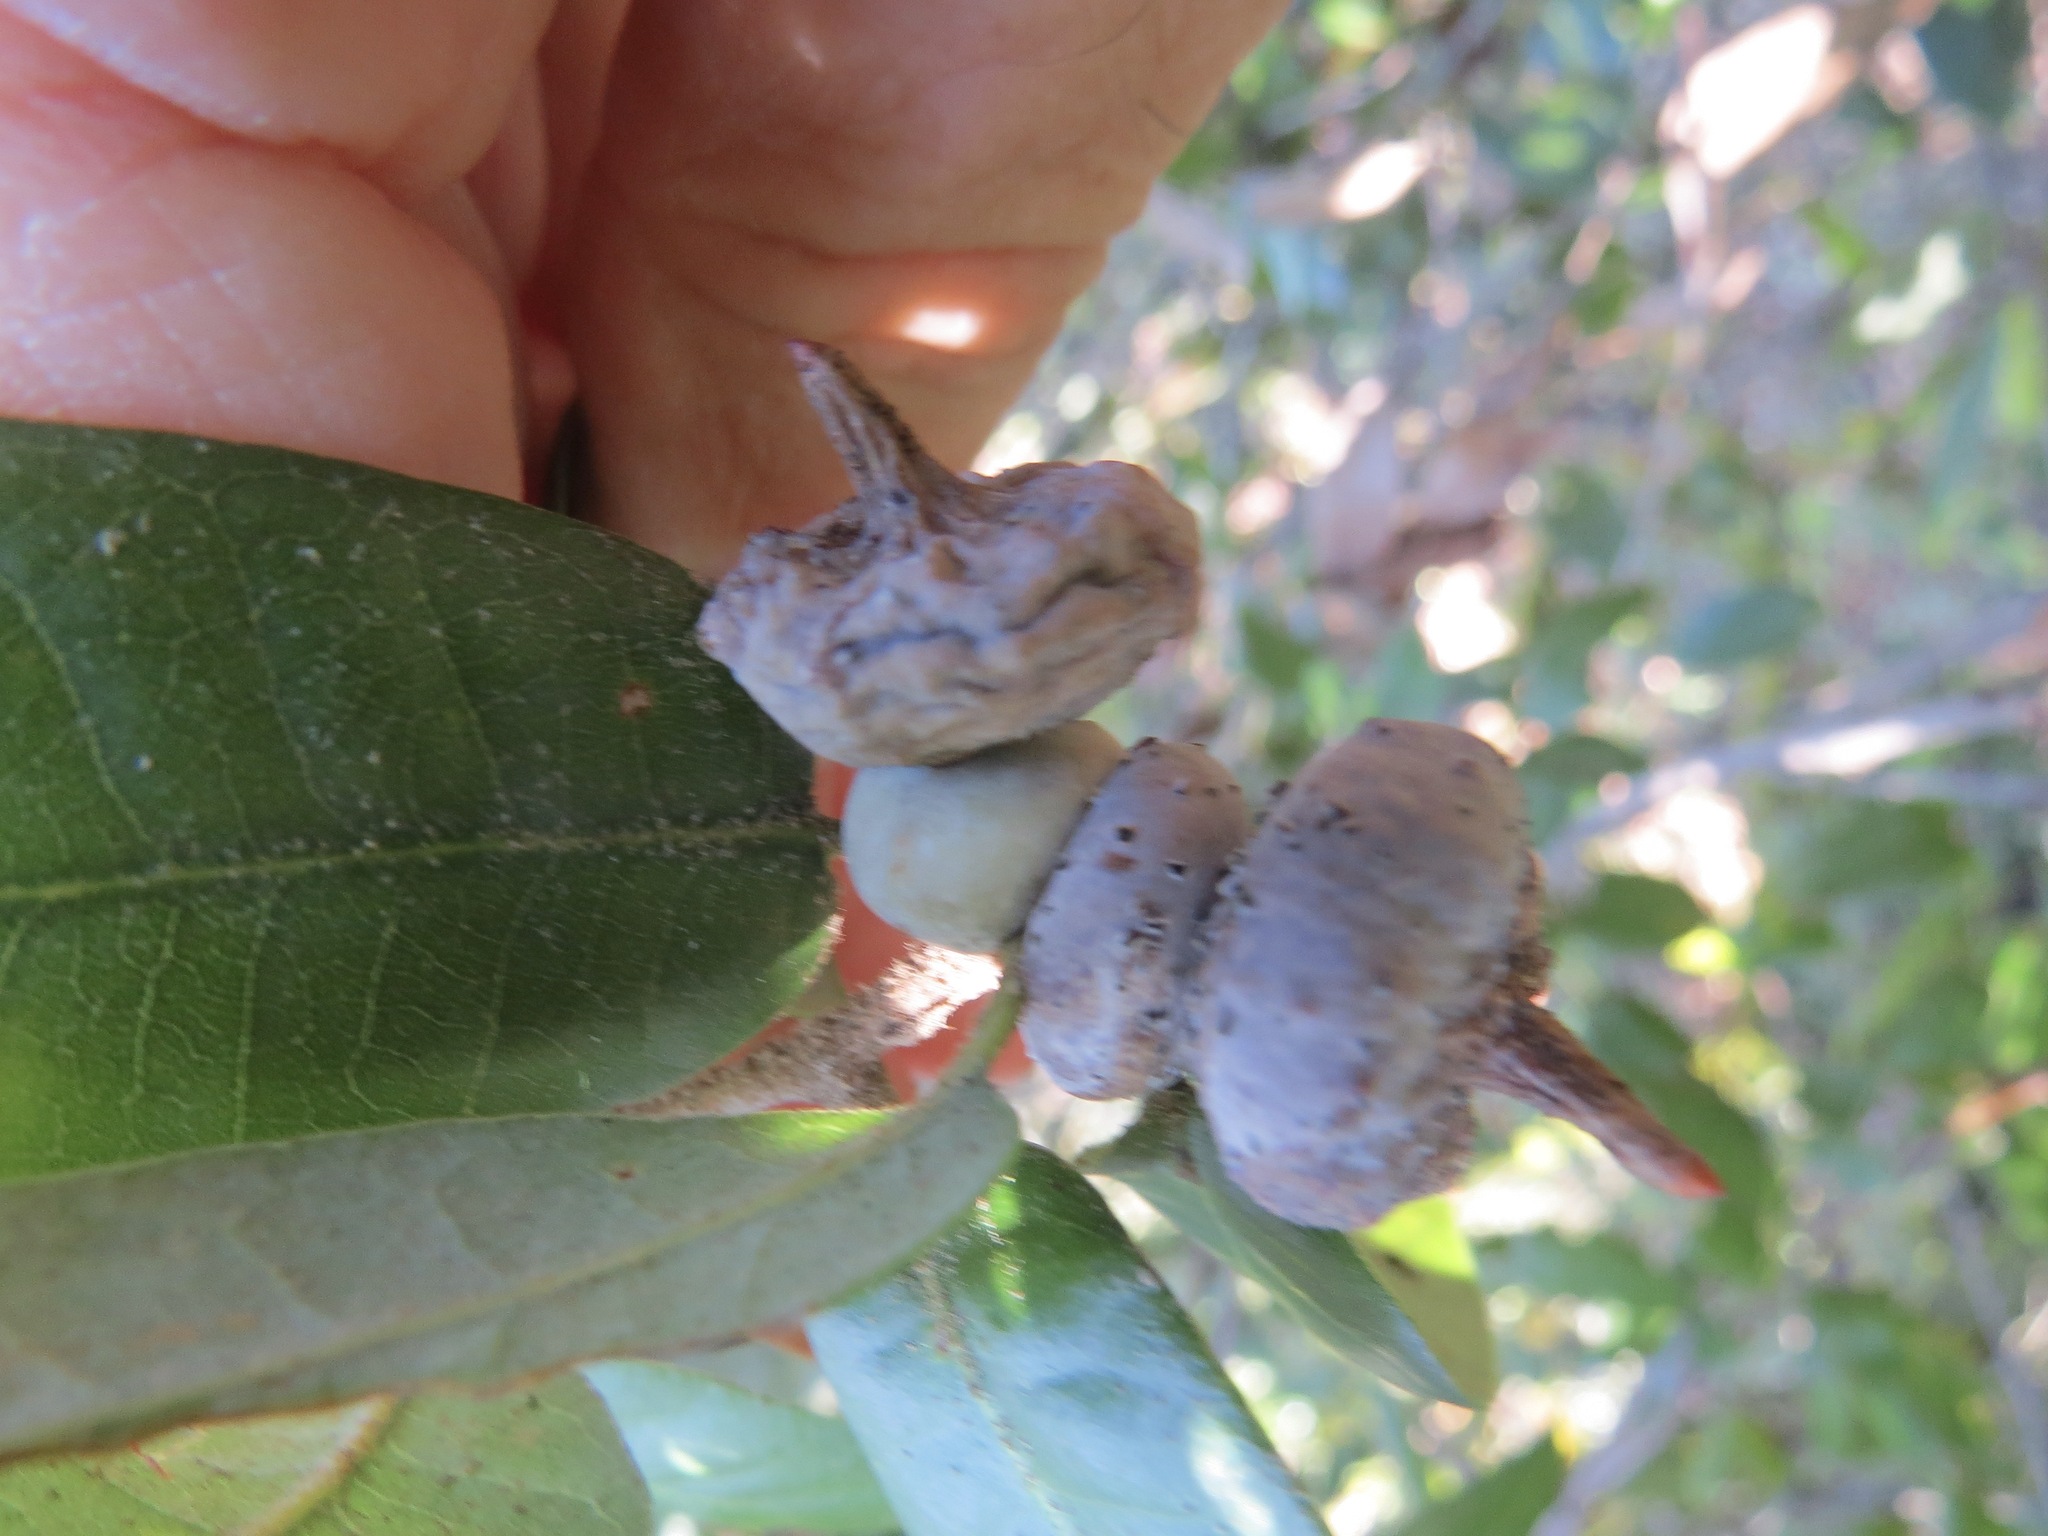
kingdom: Animalia
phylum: Arthropoda
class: Insecta
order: Hymenoptera
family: Cynipidae
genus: Heteroecus
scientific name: Heteroecus
